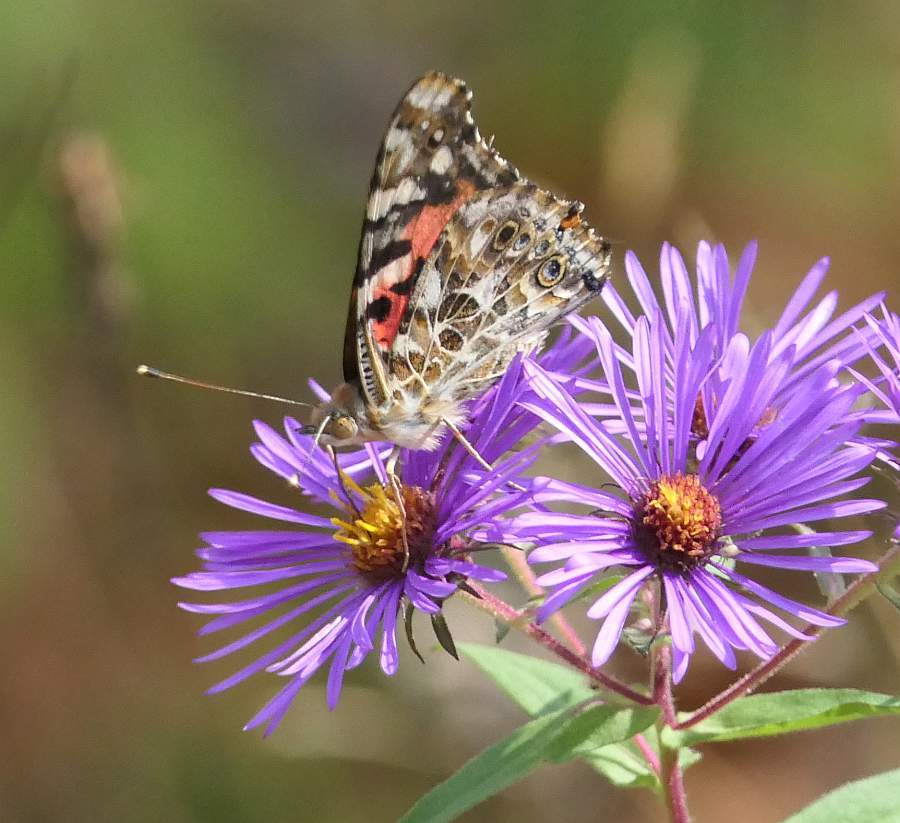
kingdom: Animalia
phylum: Arthropoda
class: Insecta
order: Lepidoptera
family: Nymphalidae
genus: Vanessa
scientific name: Vanessa cardui
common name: Painted lady
